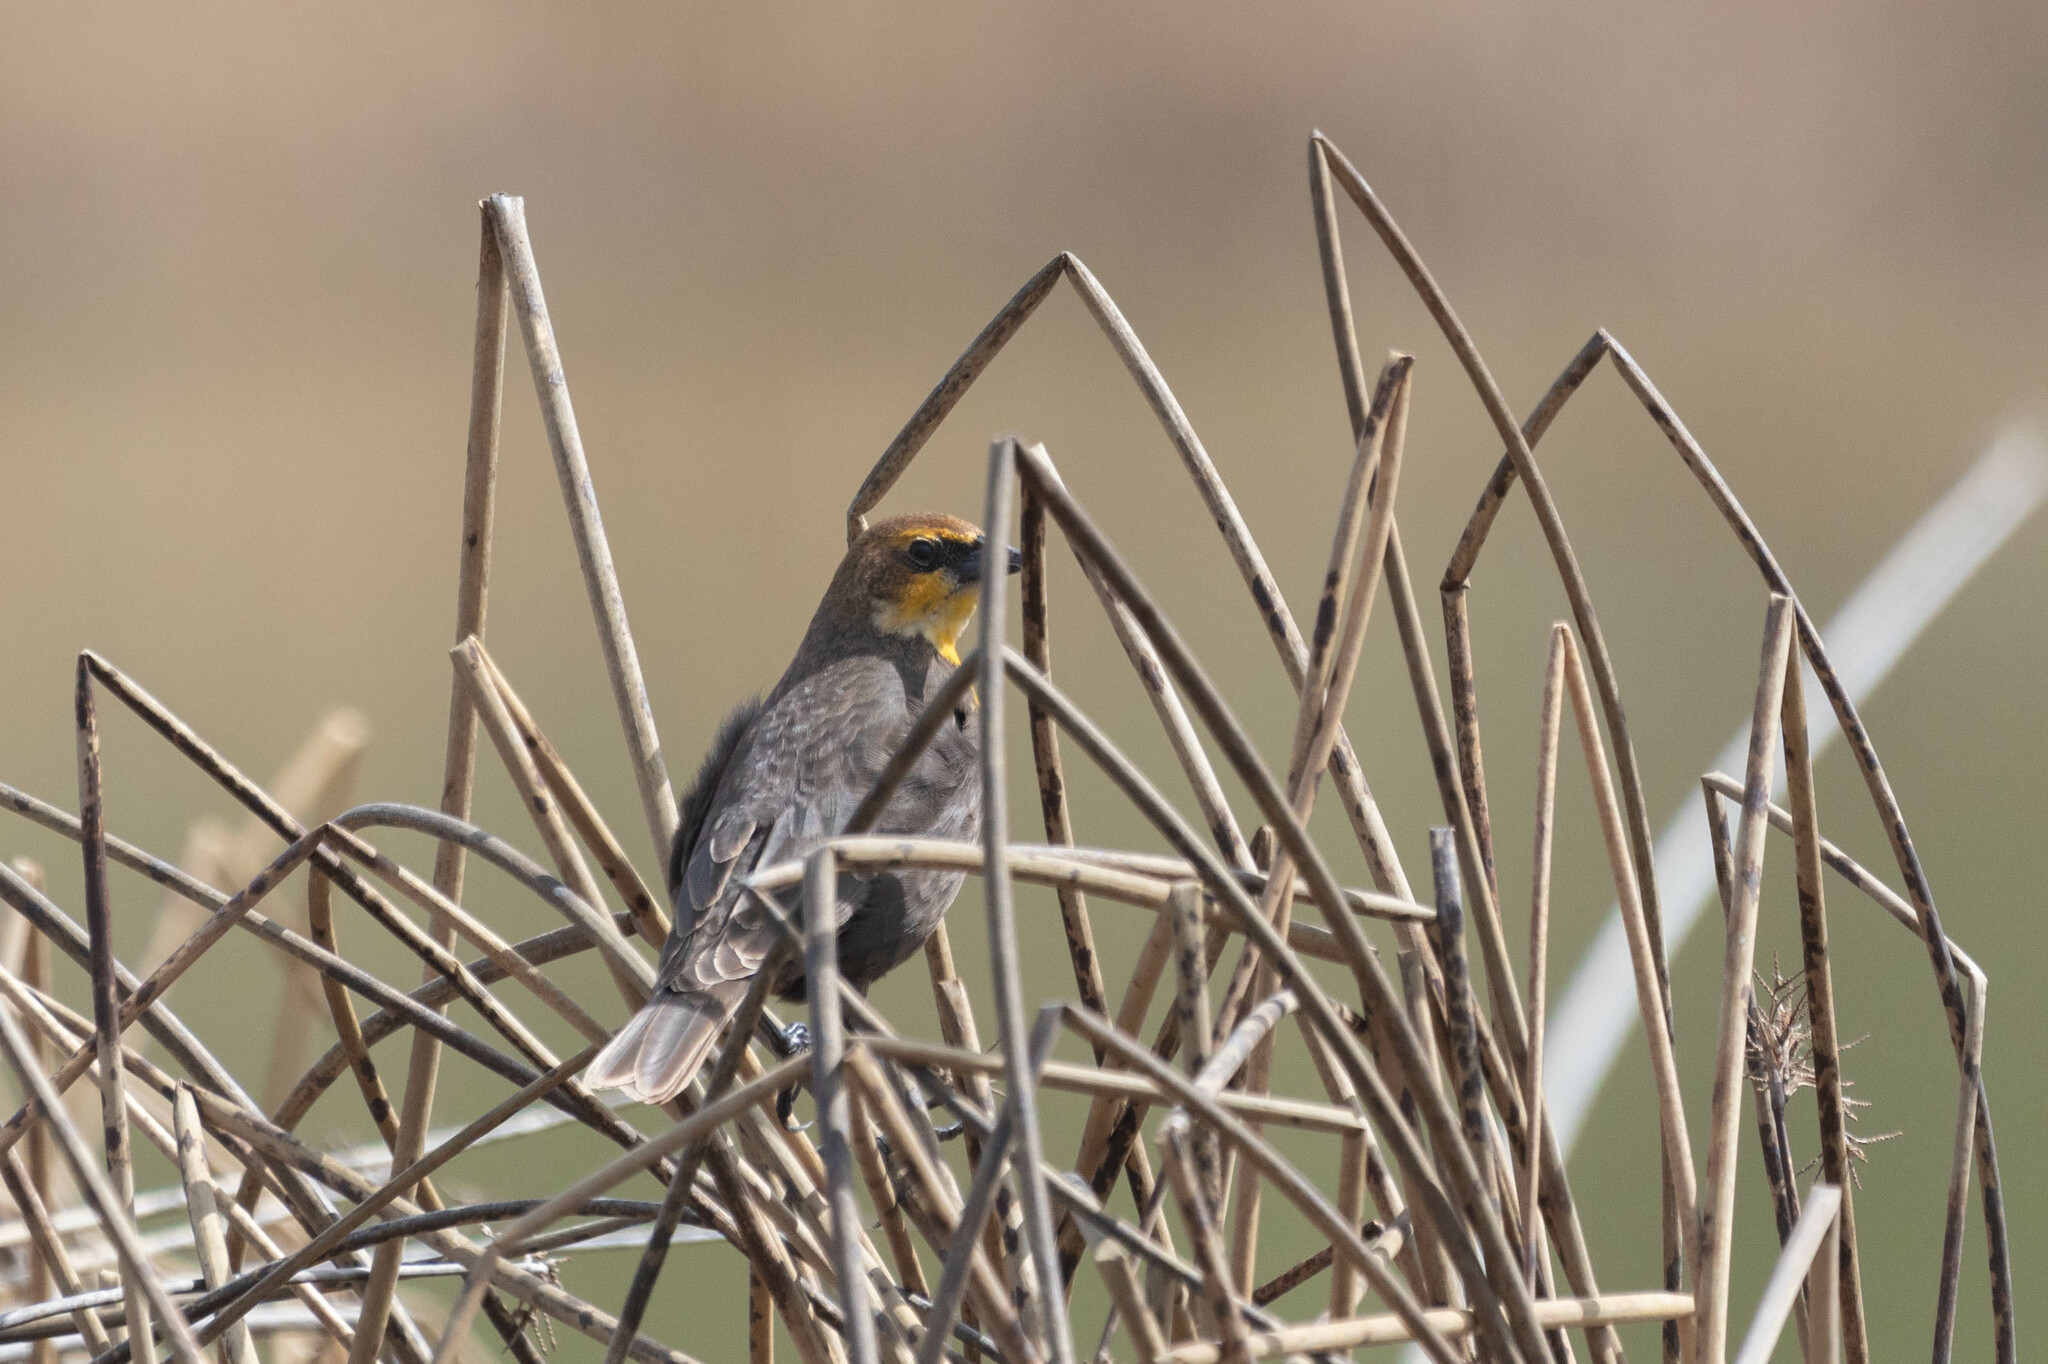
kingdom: Animalia
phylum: Chordata
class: Aves
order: Passeriformes
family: Icteridae
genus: Xanthocephalus
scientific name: Xanthocephalus xanthocephalus
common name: Yellow-headed blackbird
